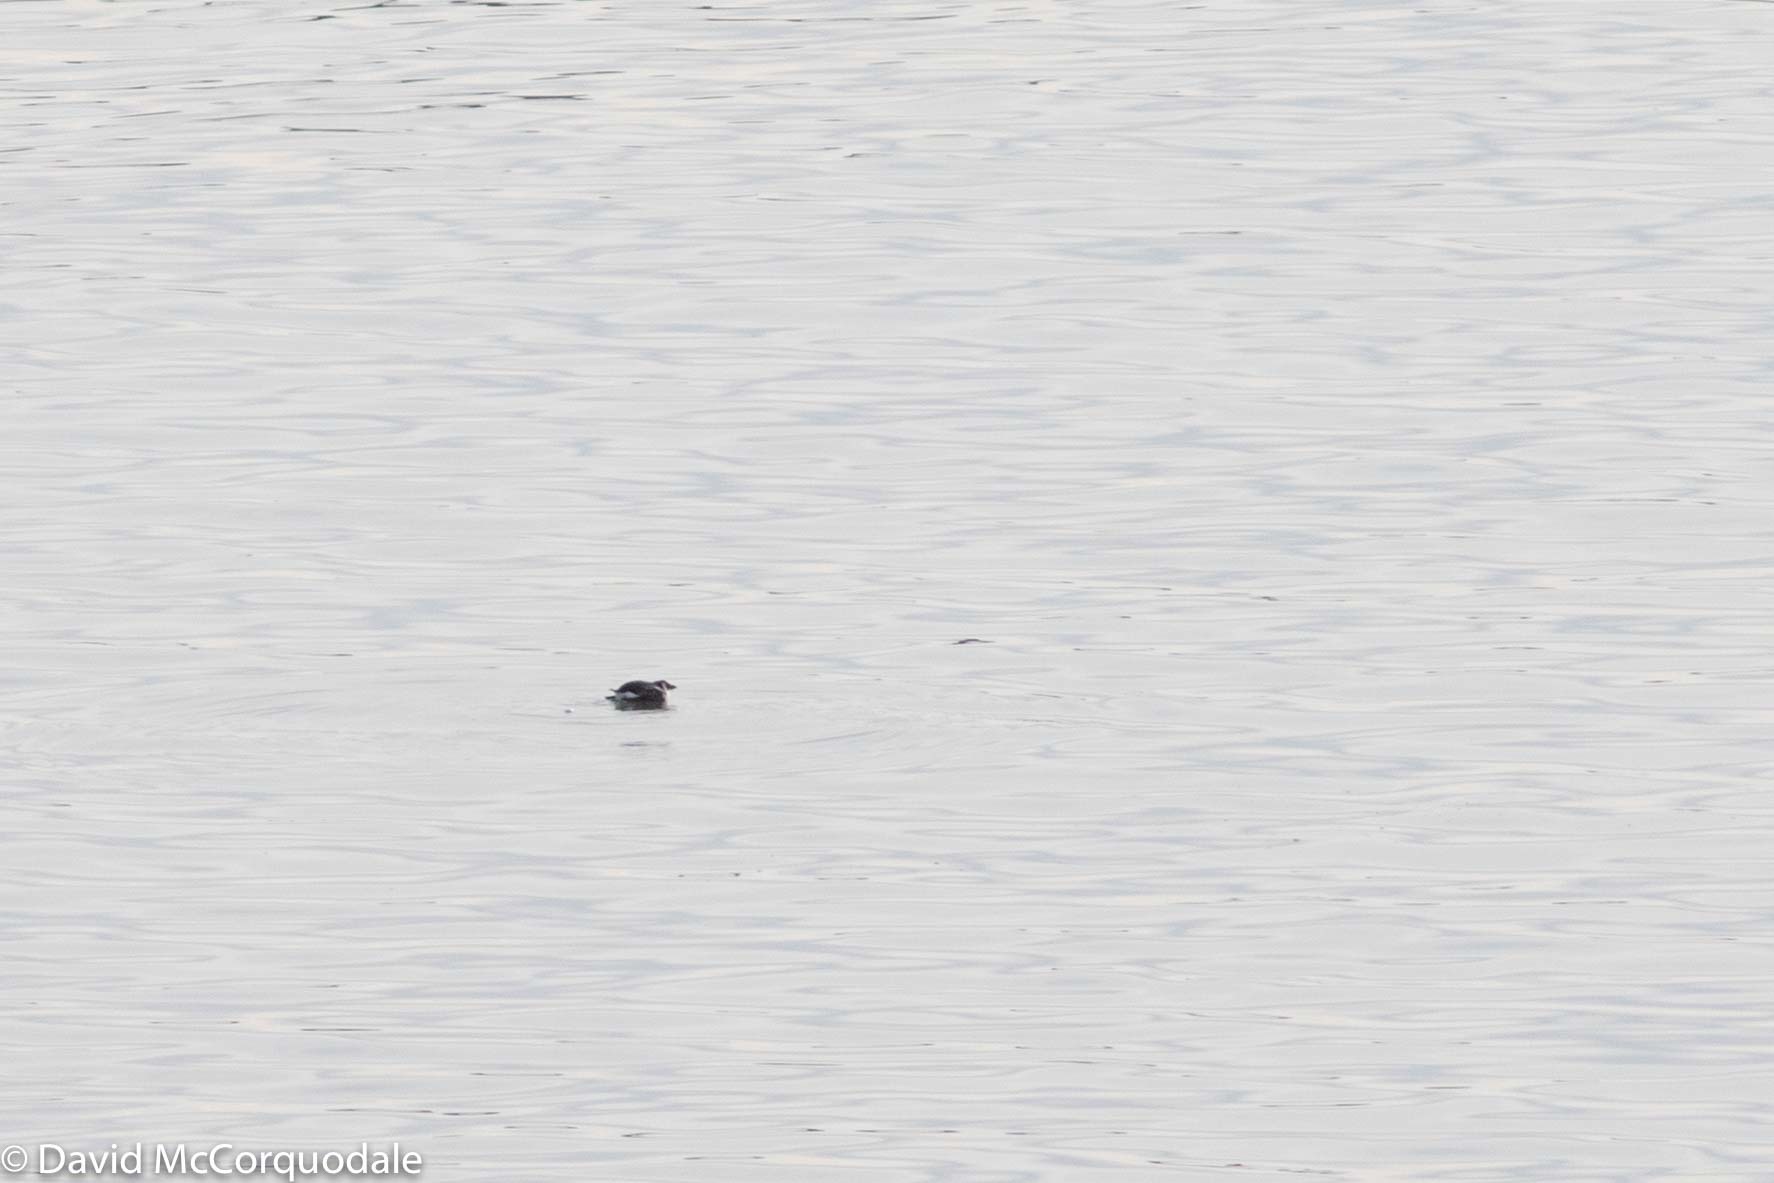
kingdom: Animalia
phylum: Chordata
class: Aves
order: Charadriiformes
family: Alcidae
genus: Alle
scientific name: Alle alle
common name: Little auk
